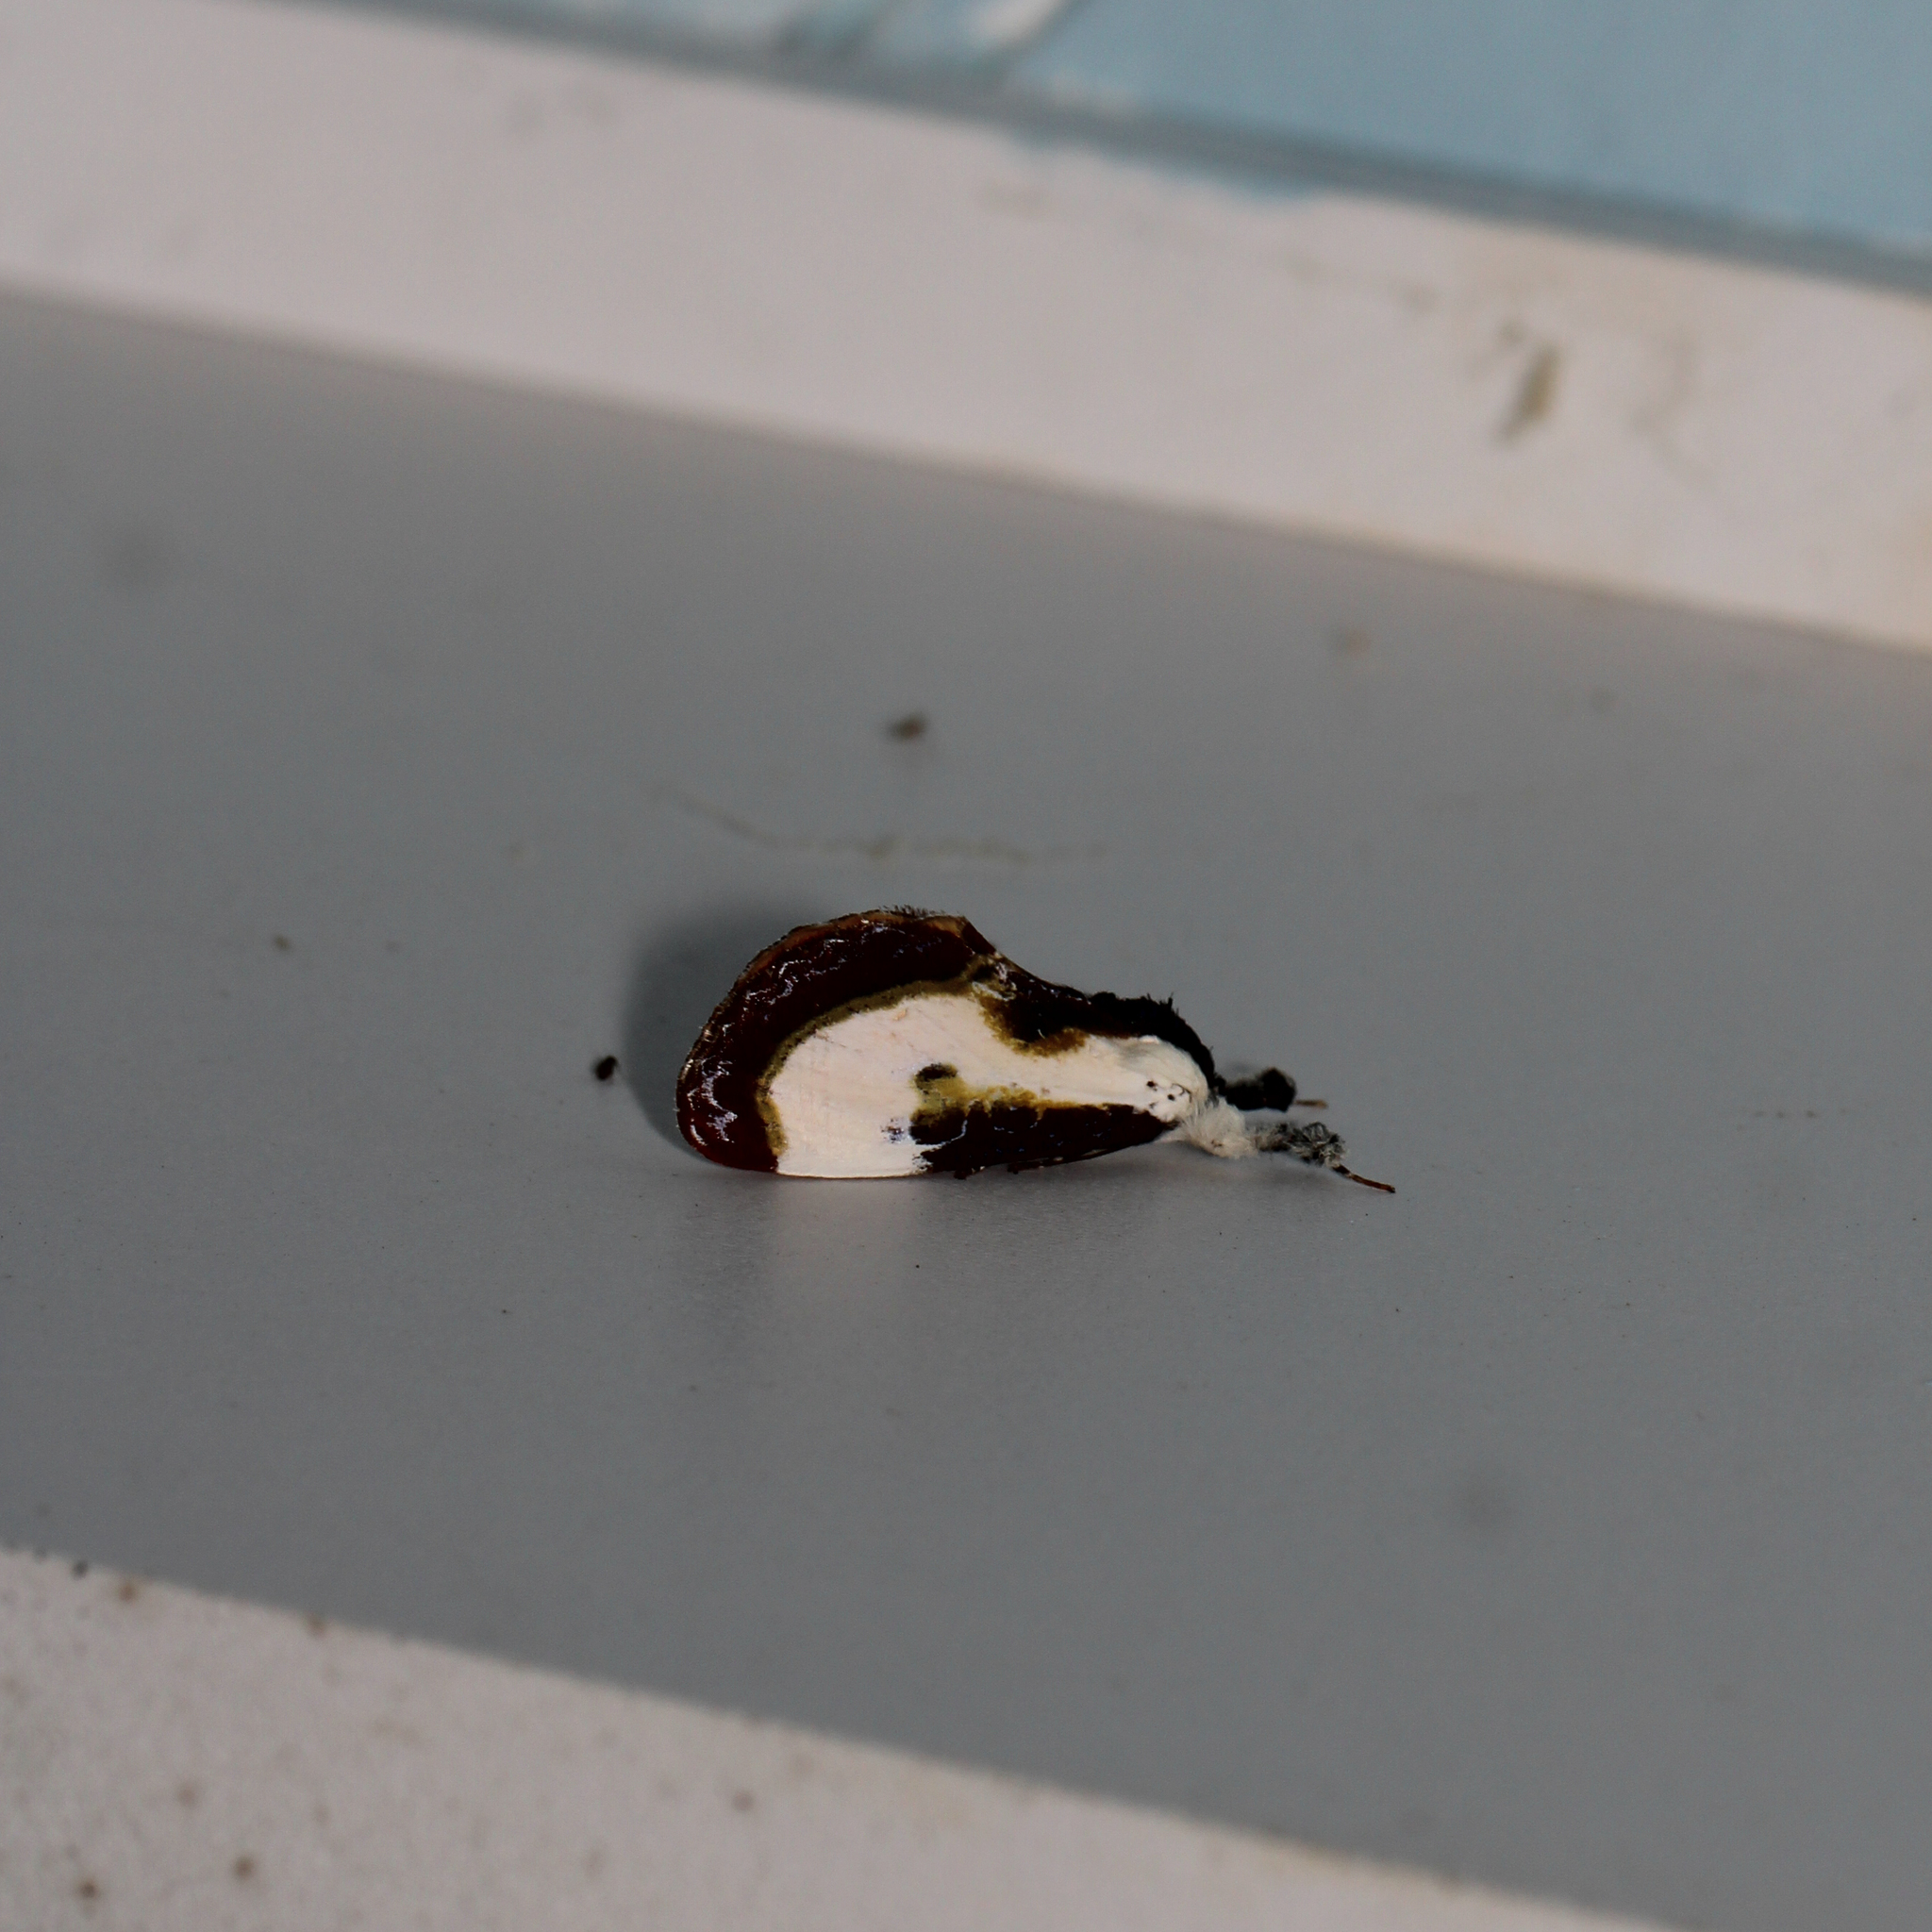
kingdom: Animalia
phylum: Arthropoda
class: Insecta
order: Lepidoptera
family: Noctuidae
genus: Eudryas
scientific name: Eudryas grata
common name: Beautiful wood-nymph
